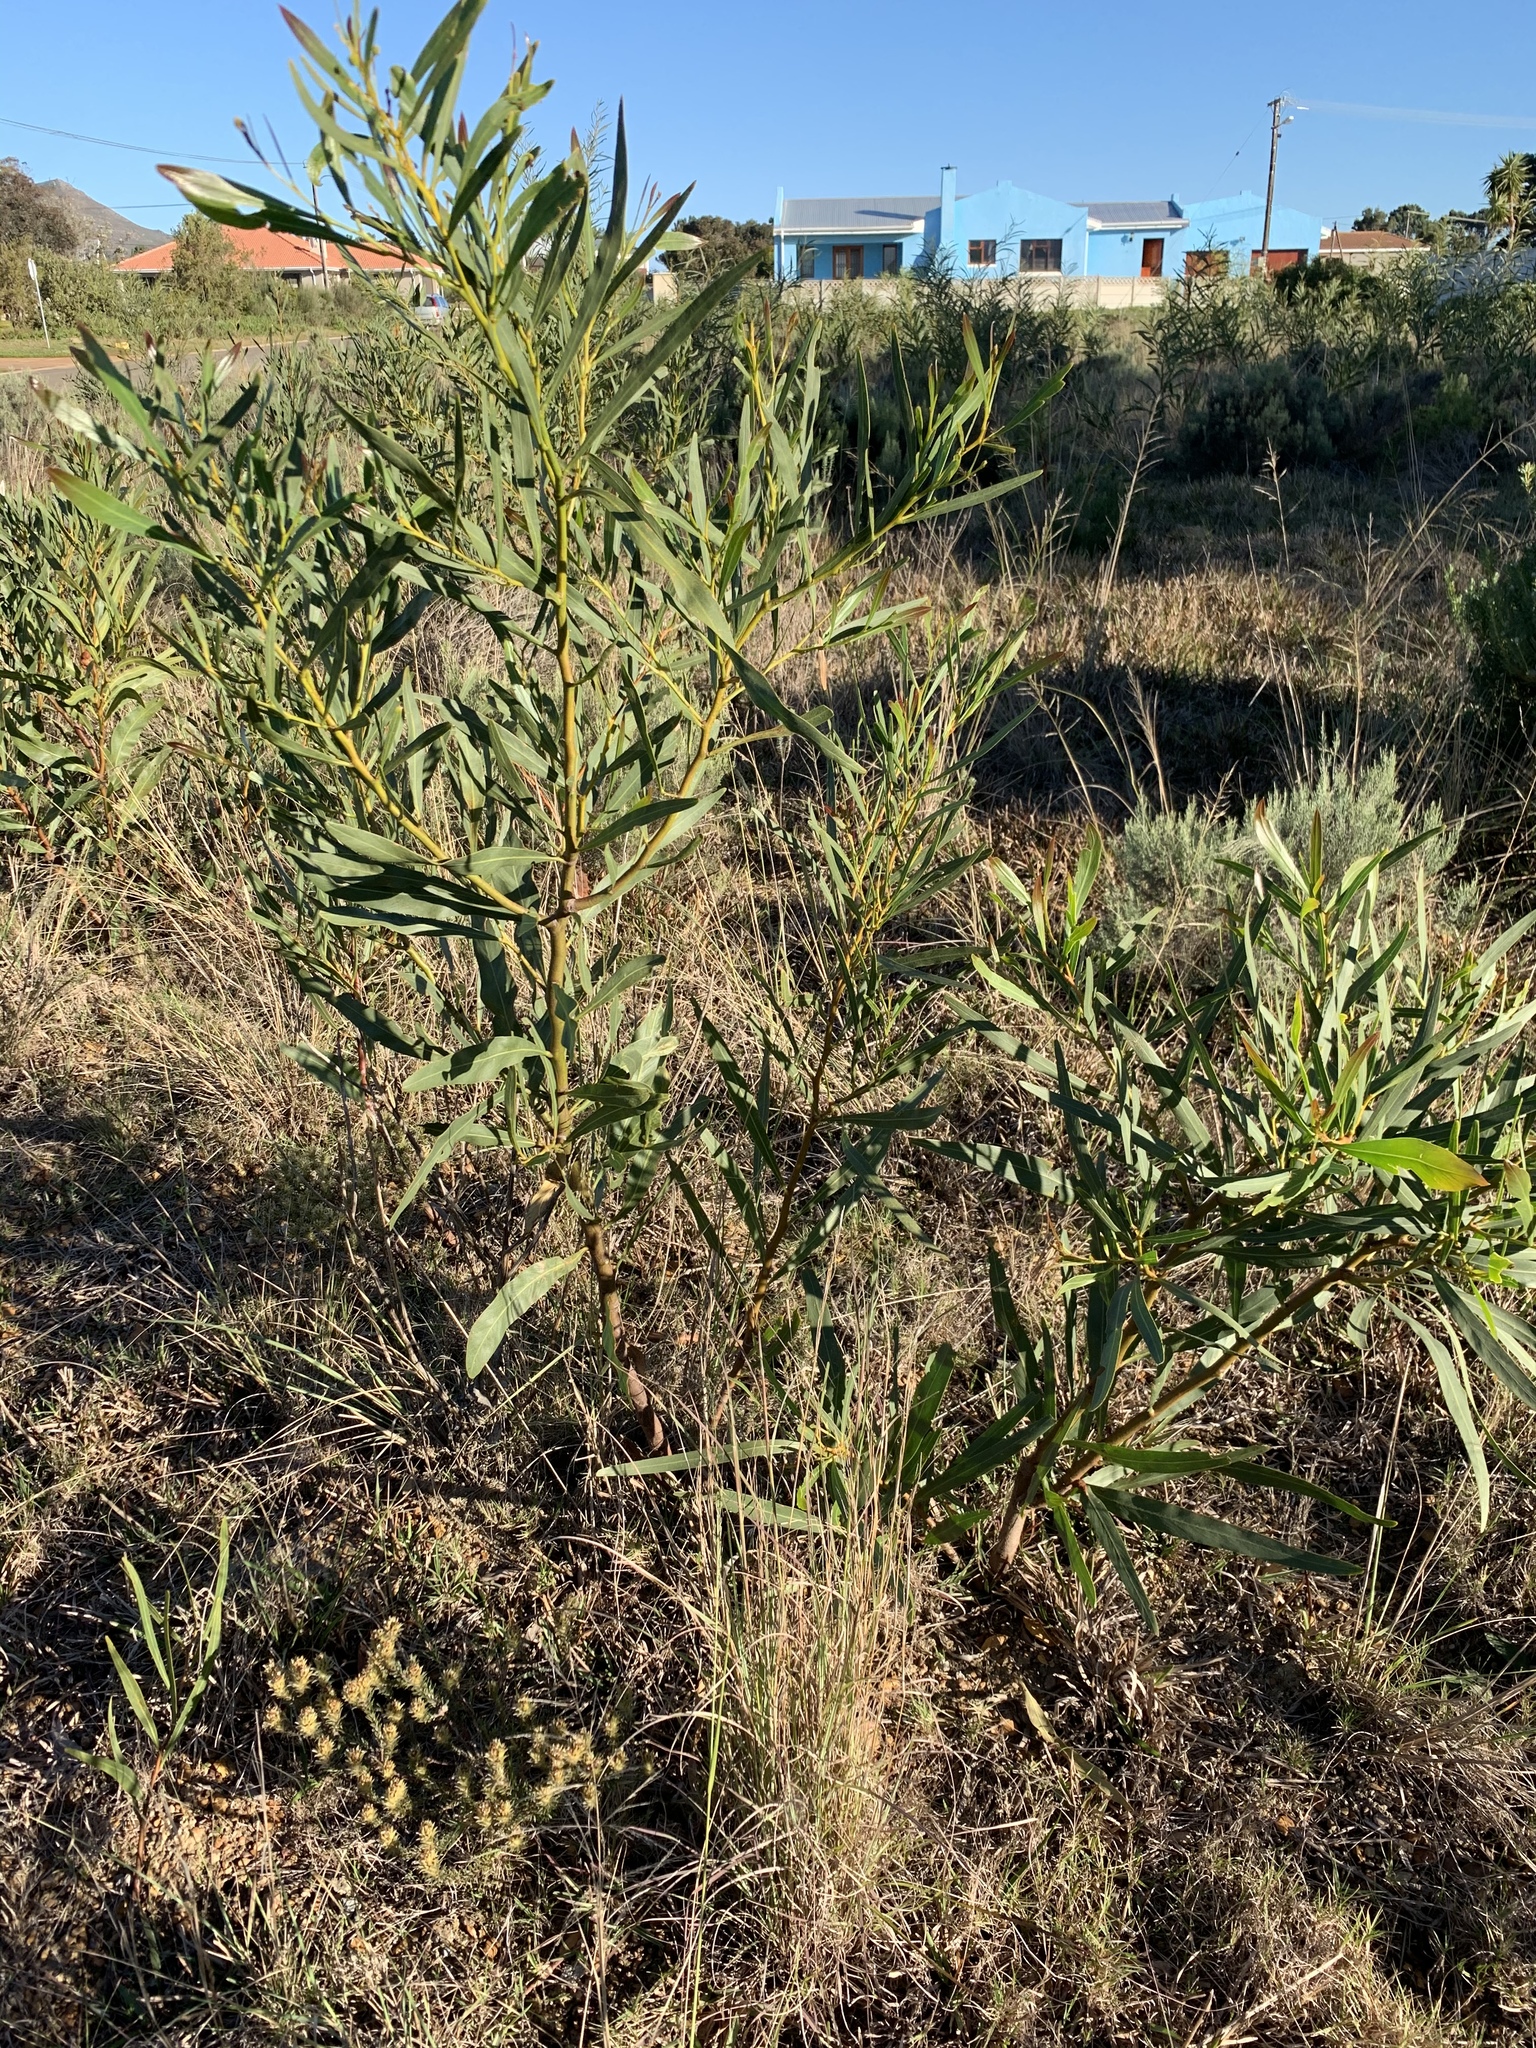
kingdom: Plantae
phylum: Tracheophyta
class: Magnoliopsida
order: Fabales
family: Fabaceae
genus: Acacia
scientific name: Acacia saligna
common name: Orange wattle
